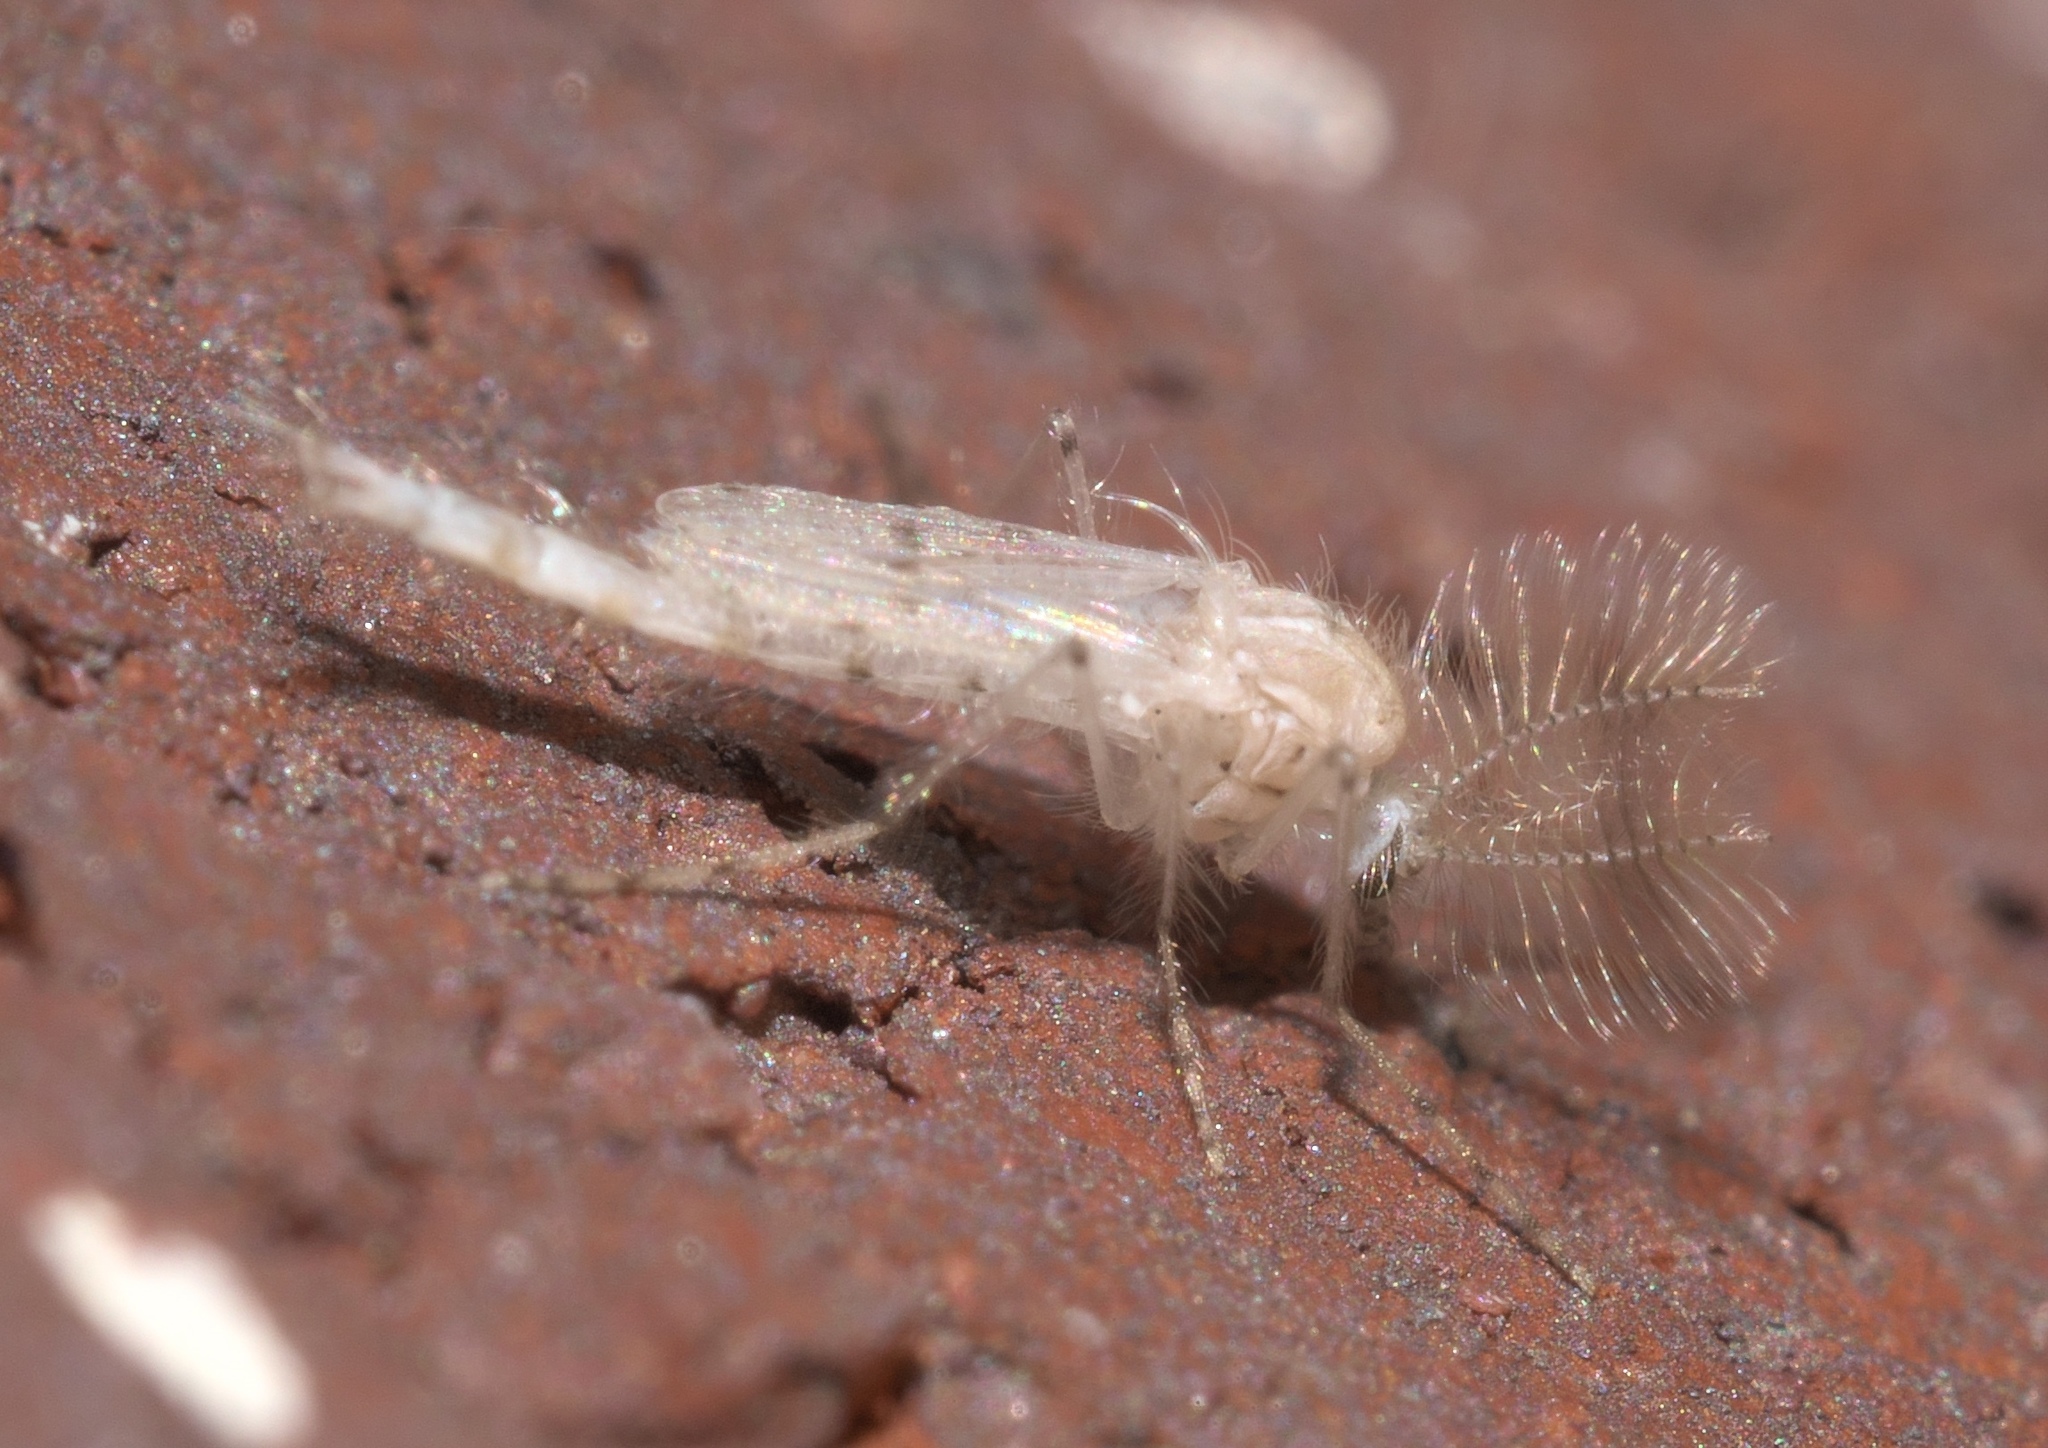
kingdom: Animalia
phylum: Arthropoda
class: Insecta
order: Diptera
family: Chaoboridae
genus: Chaoborus
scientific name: Chaoborus albatus
